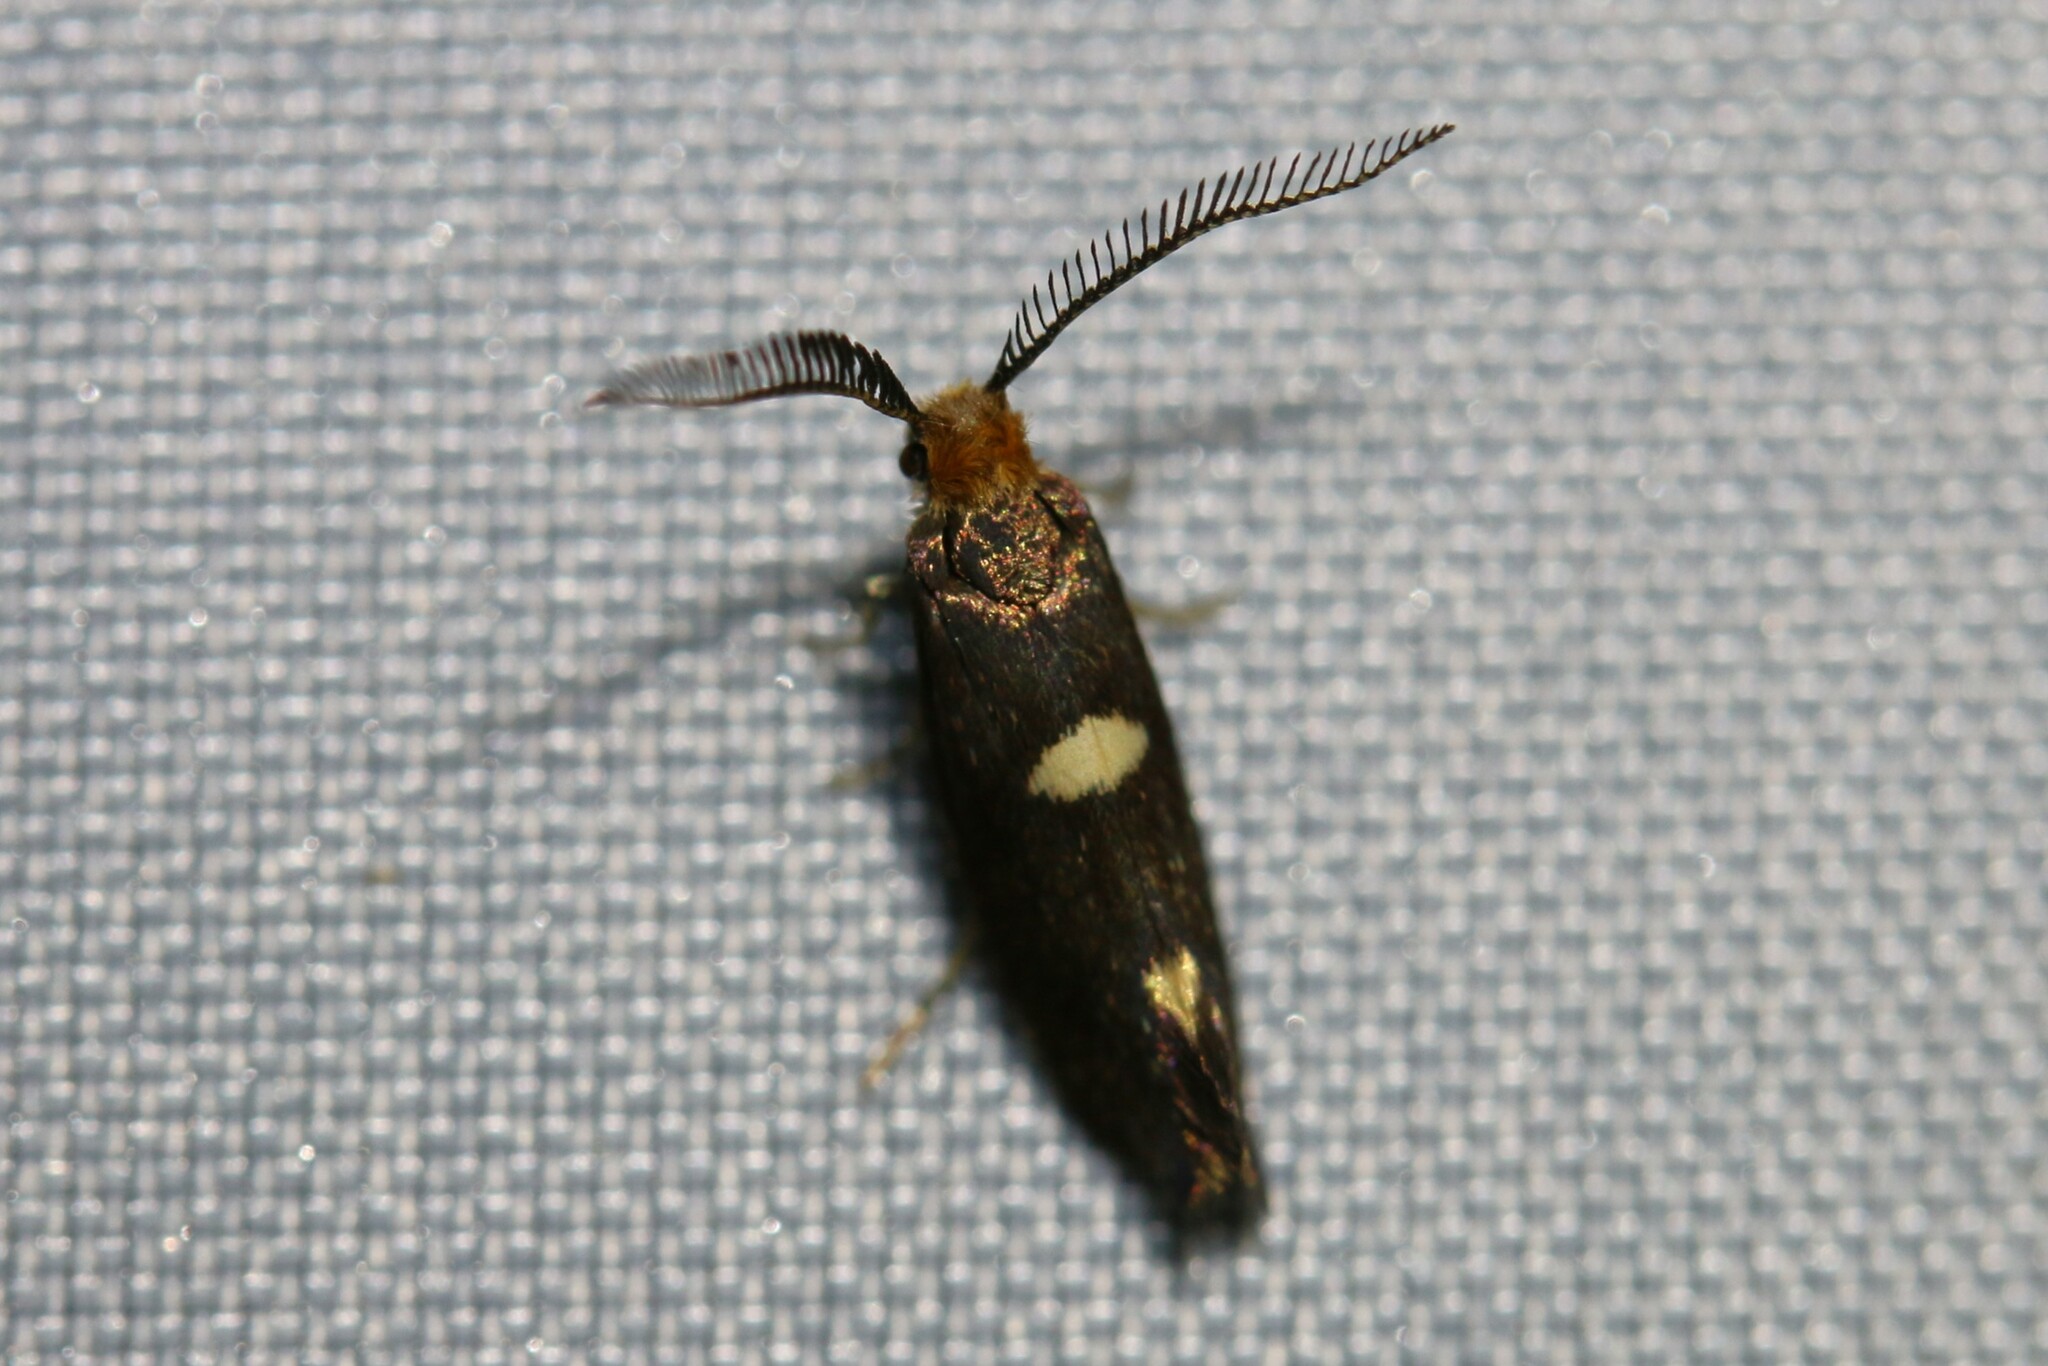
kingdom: Animalia
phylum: Arthropoda
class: Insecta
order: Lepidoptera
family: Incurvariidae
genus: Incurvaria
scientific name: Incurvaria masculella
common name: Feathered leaf-cutter
